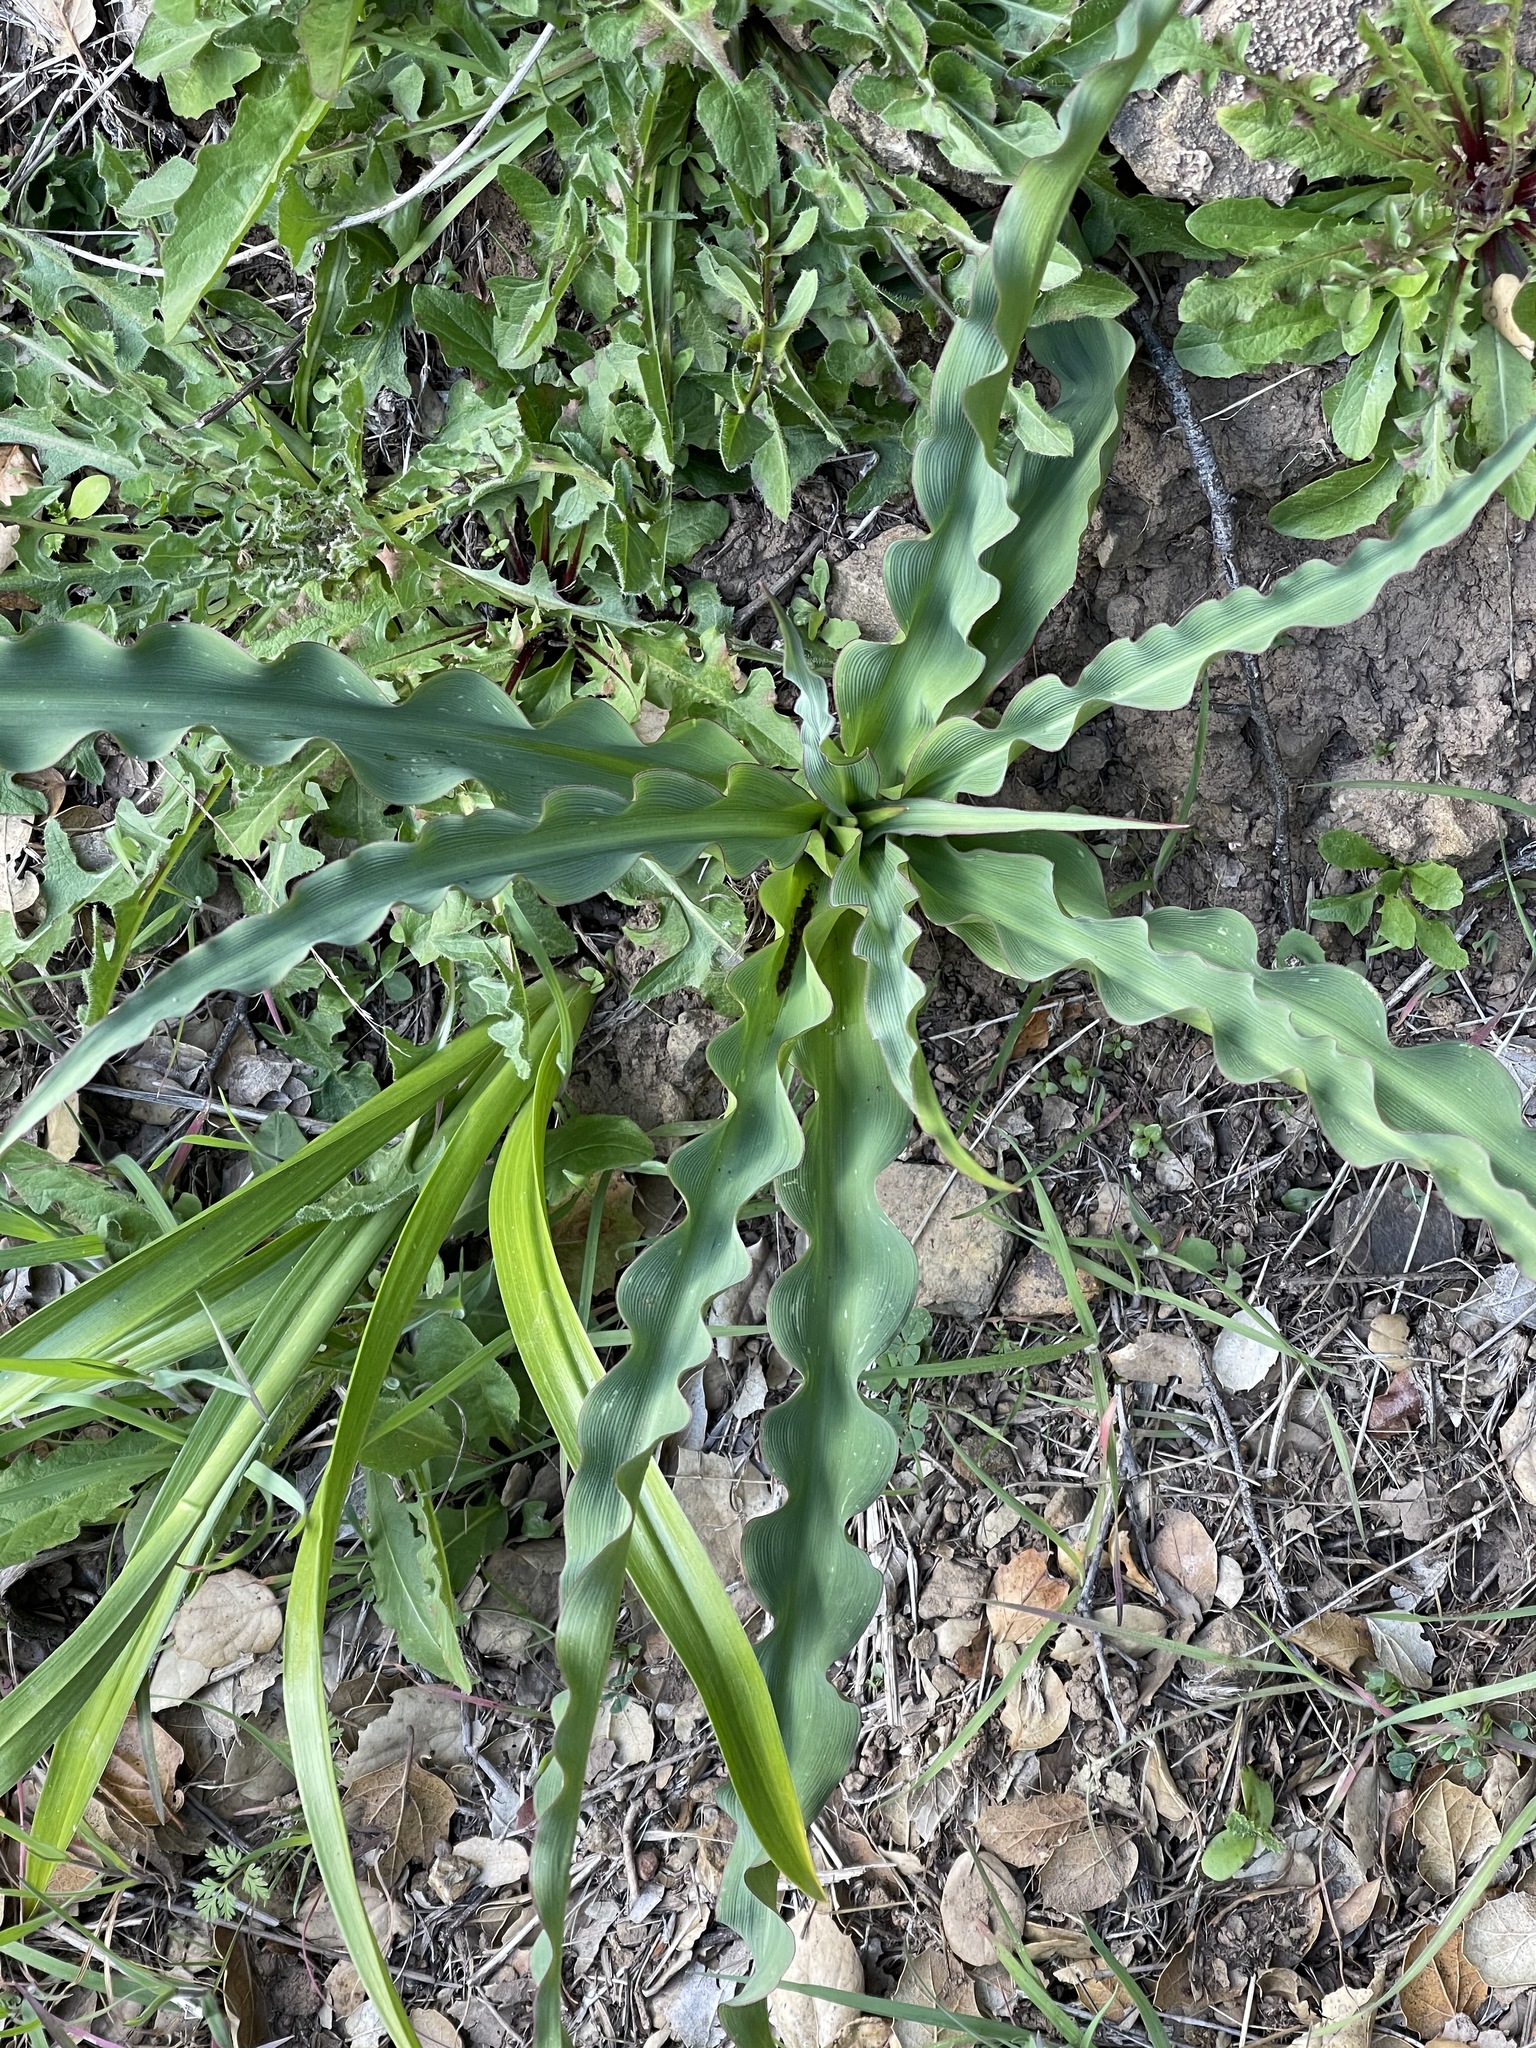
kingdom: Plantae
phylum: Tracheophyta
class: Liliopsida
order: Asparagales
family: Asparagaceae
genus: Chlorogalum
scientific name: Chlorogalum pomeridianum
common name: Amole
